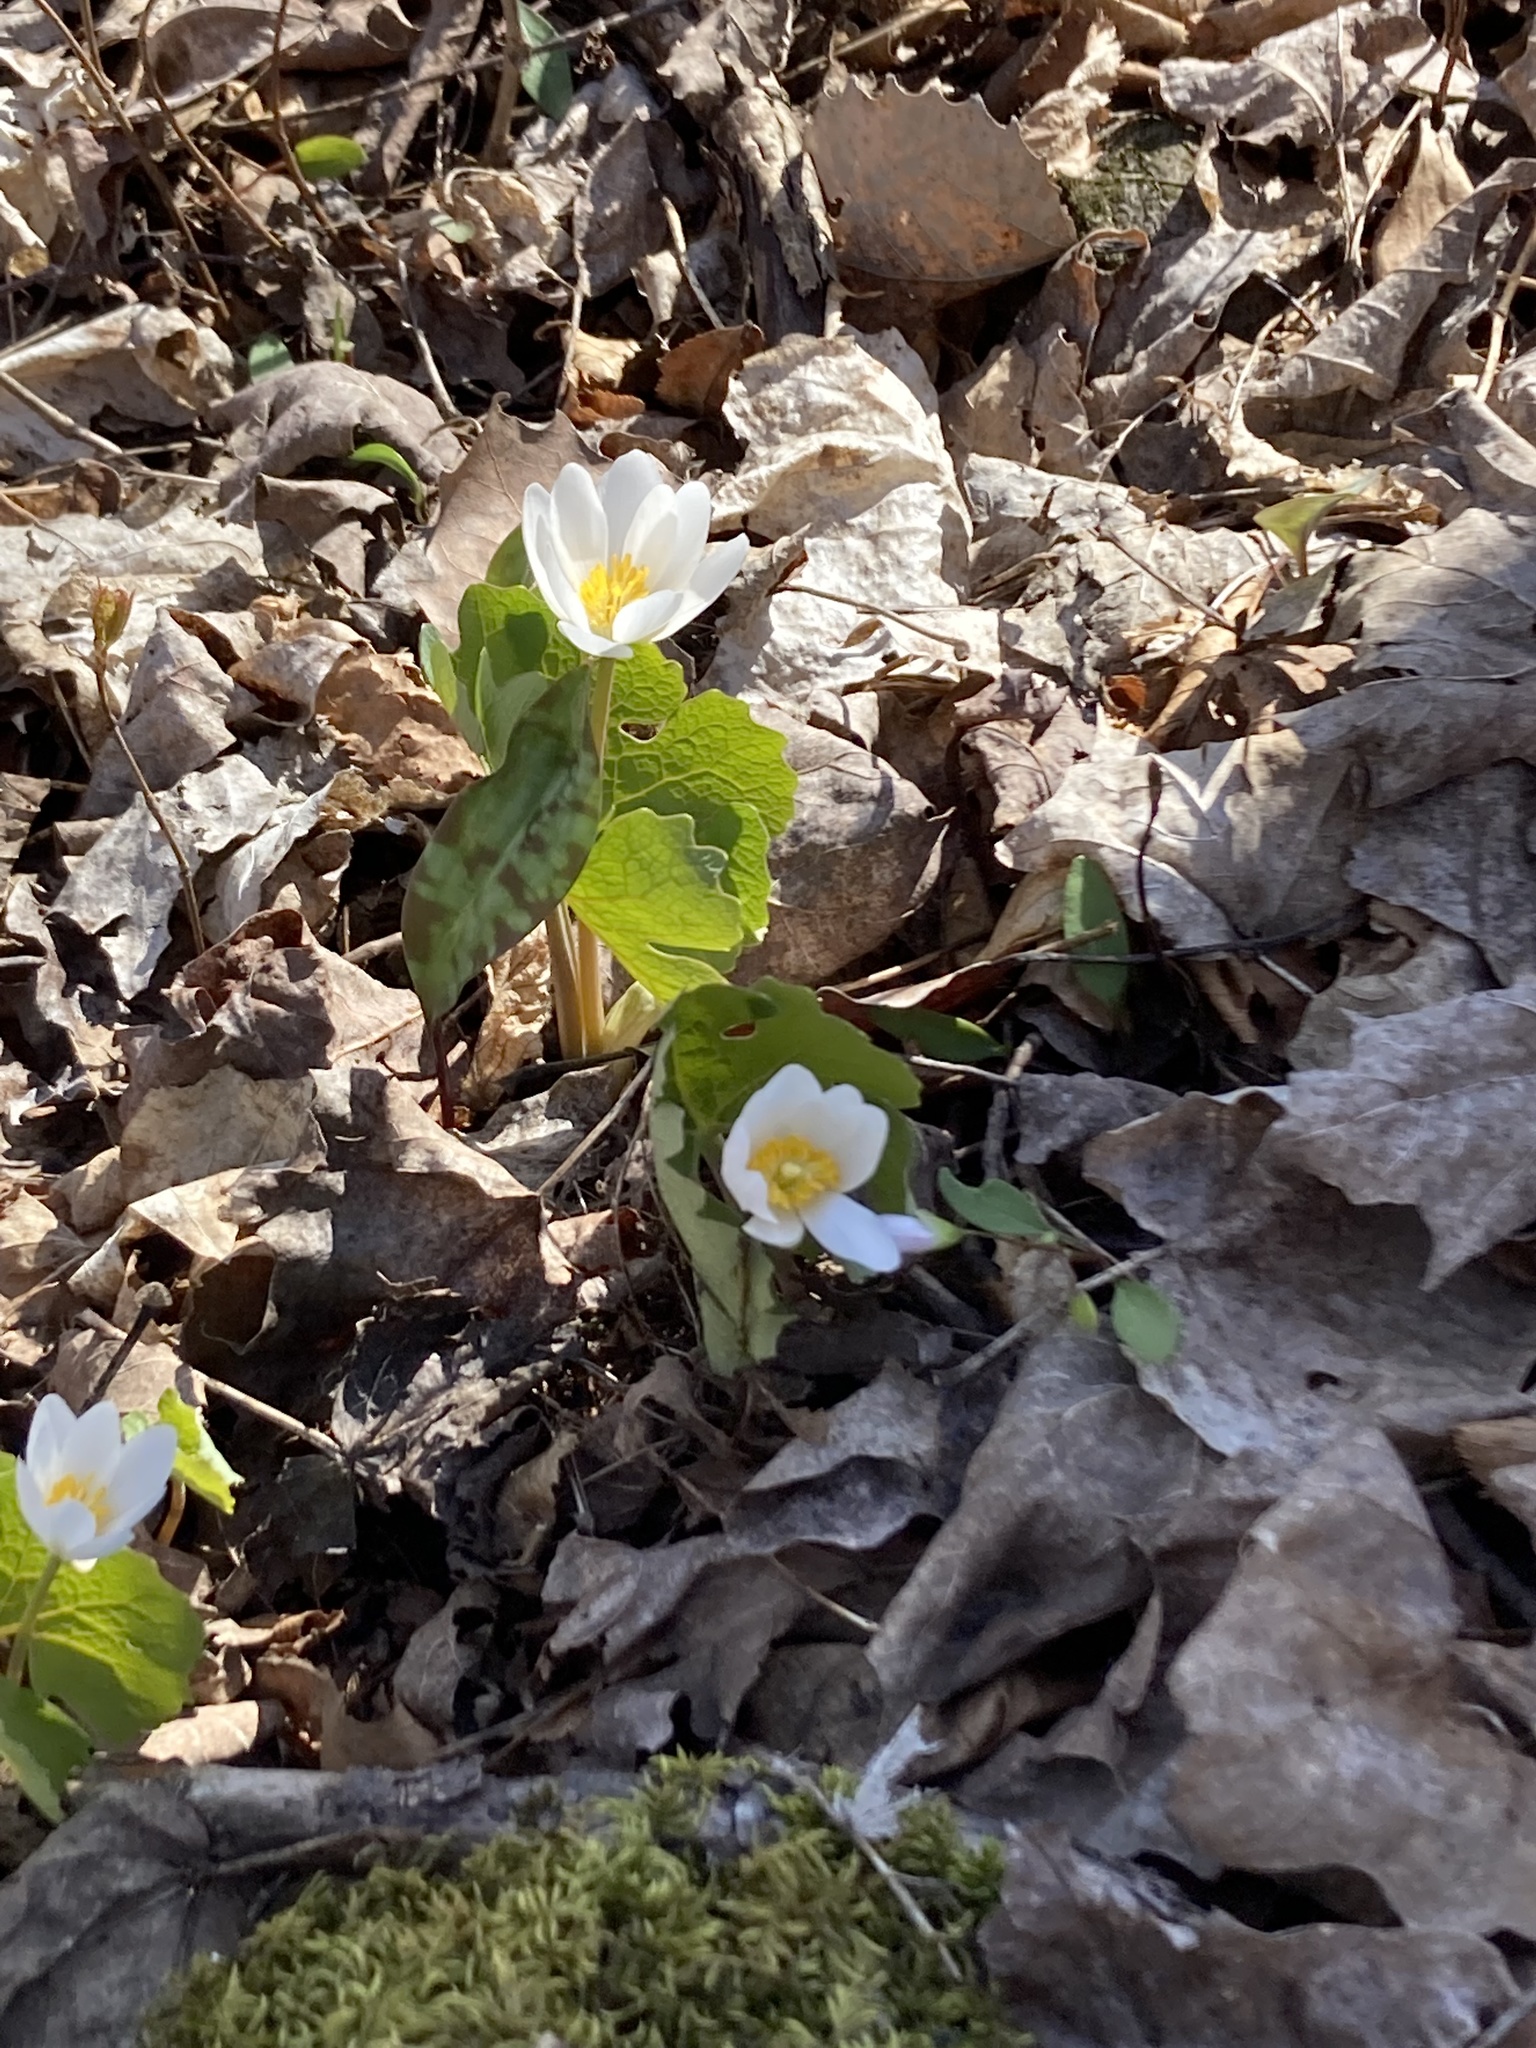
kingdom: Plantae
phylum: Tracheophyta
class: Magnoliopsida
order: Ranunculales
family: Papaveraceae
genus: Sanguinaria
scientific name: Sanguinaria canadensis
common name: Bloodroot
